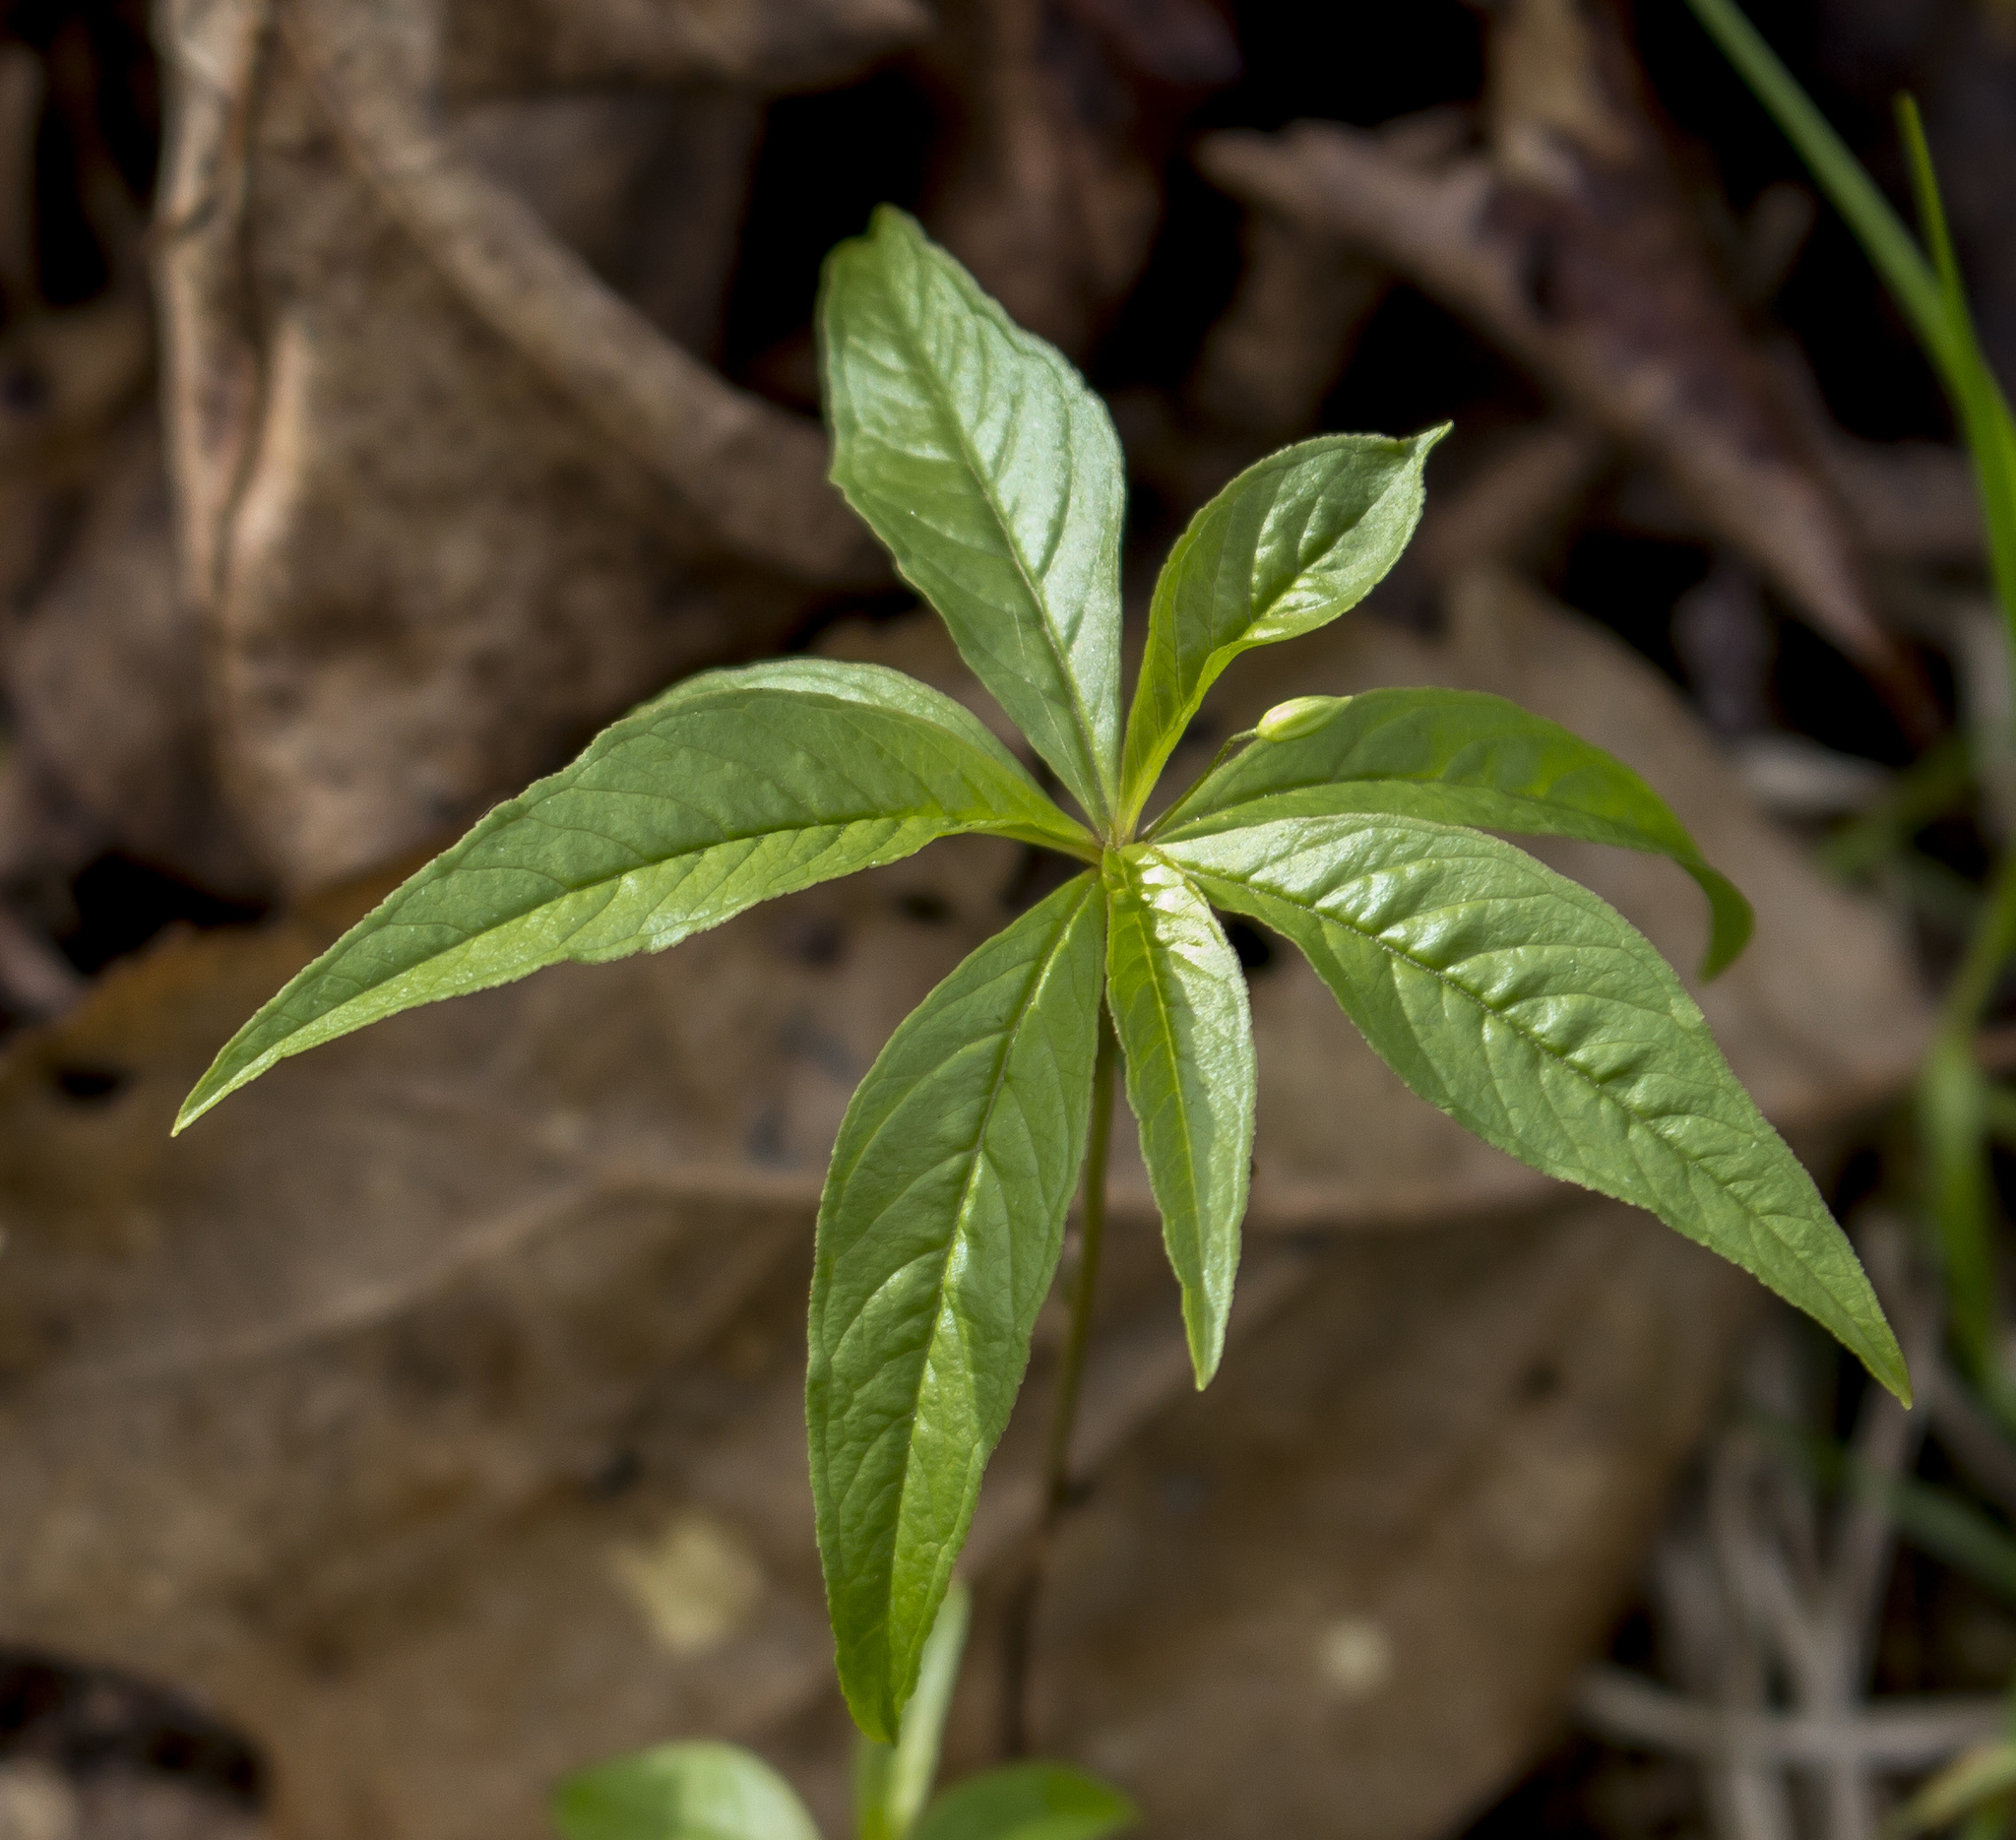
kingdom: Plantae
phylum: Tracheophyta
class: Magnoliopsida
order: Ericales
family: Primulaceae
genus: Lysimachia
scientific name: Lysimachia borealis
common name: American starflower
